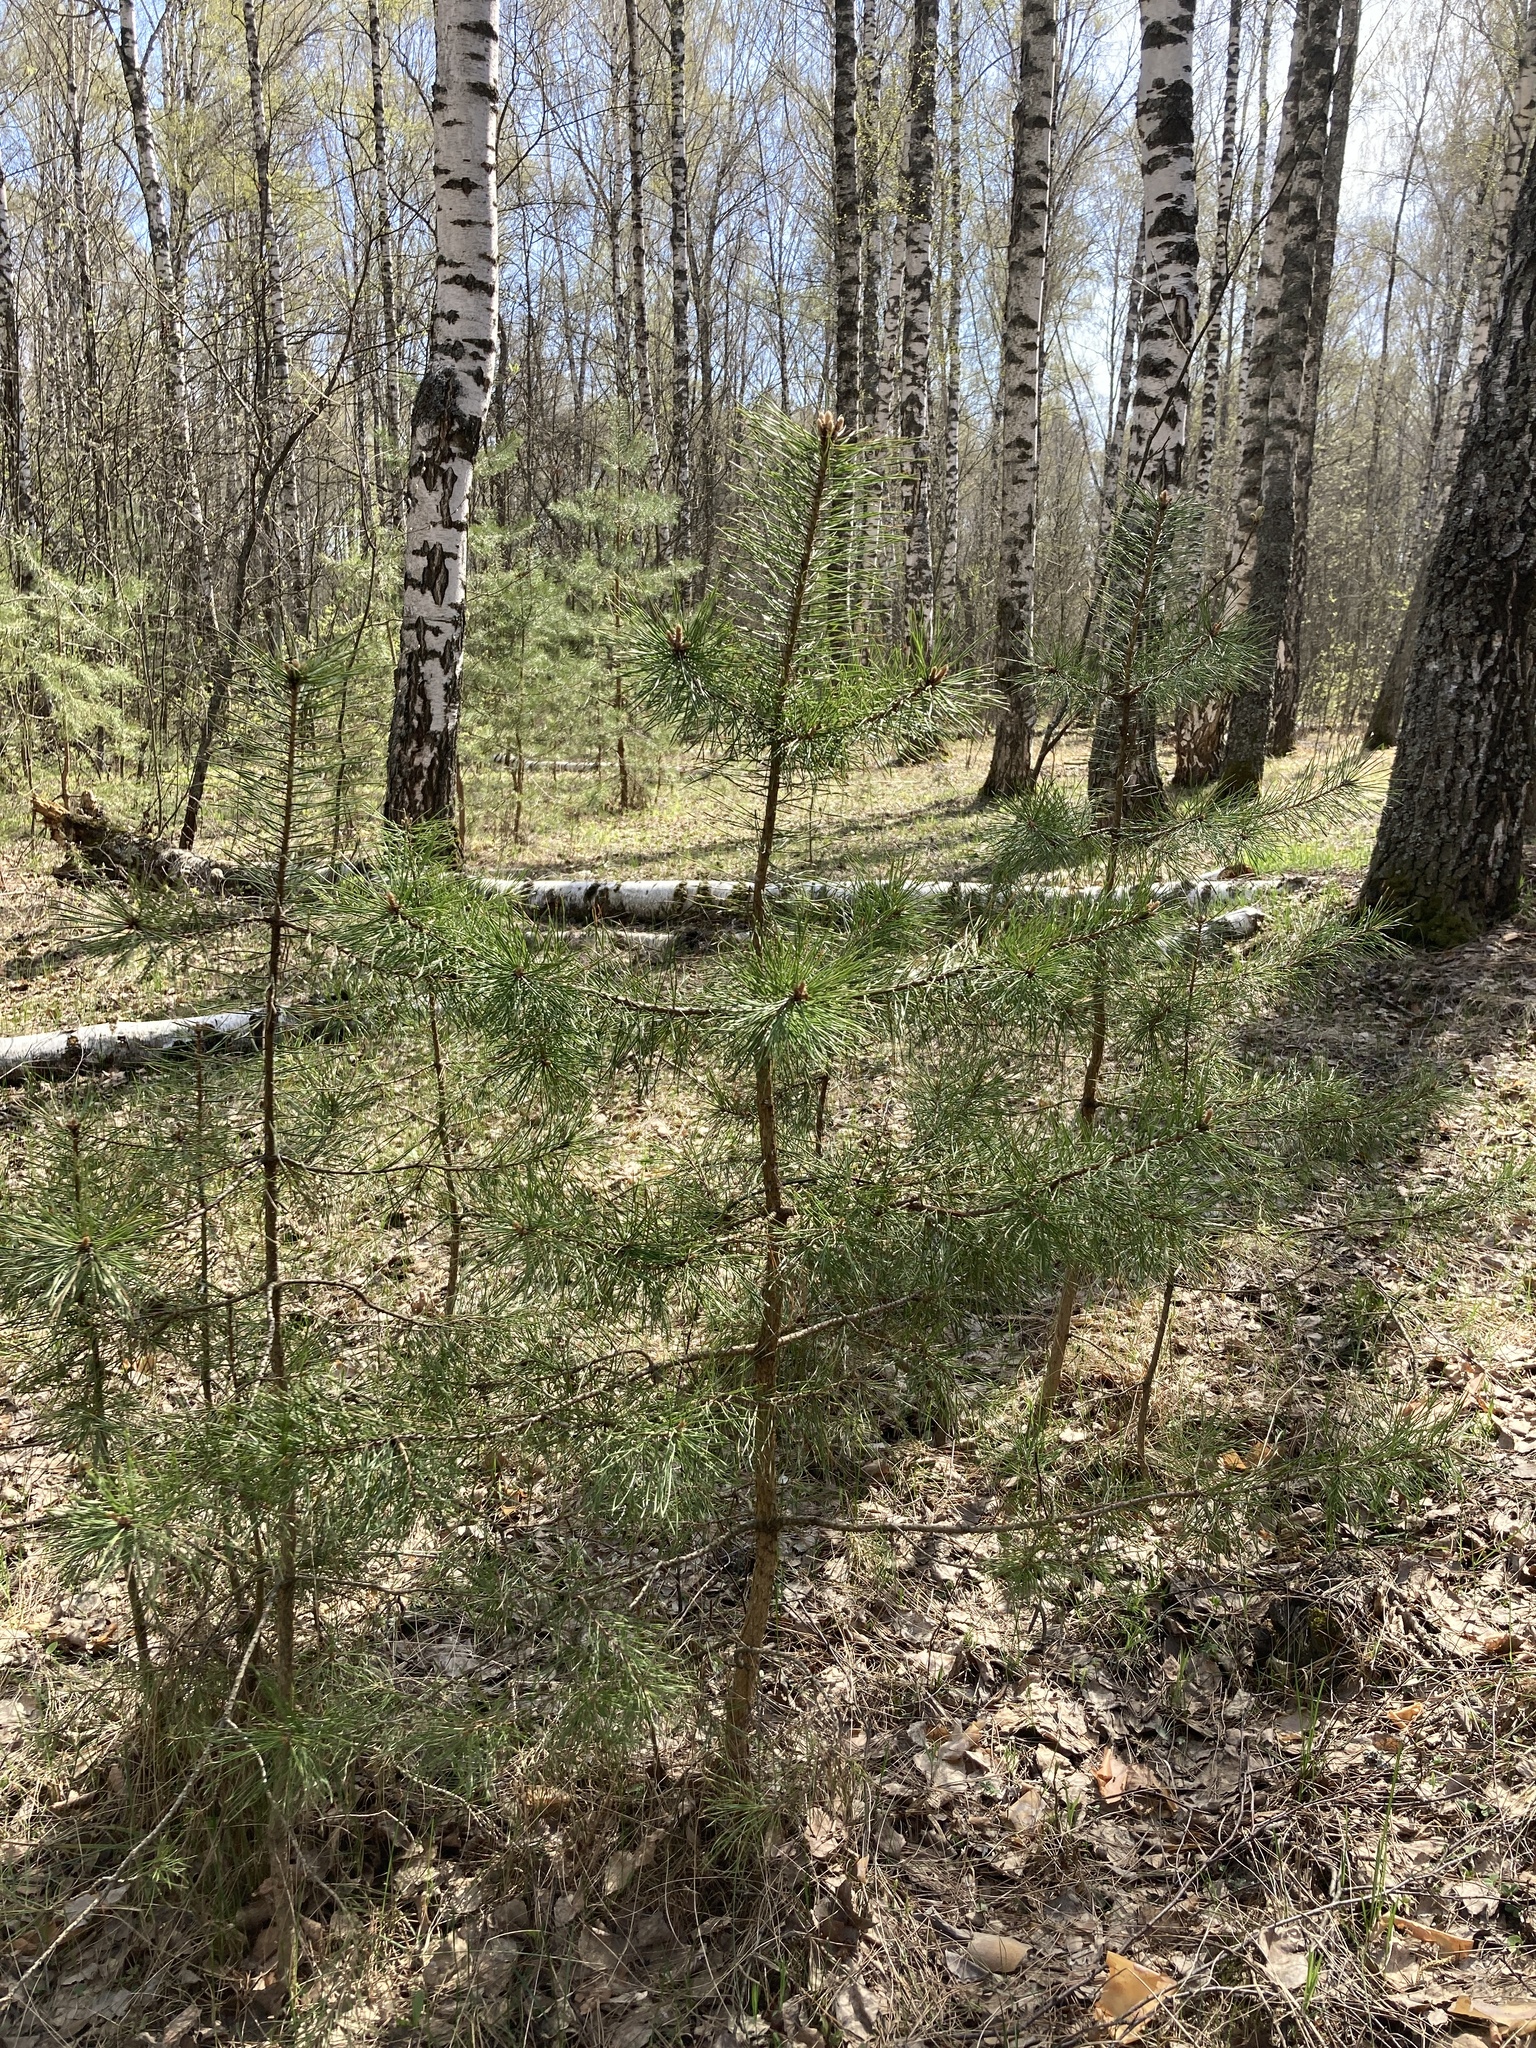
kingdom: Plantae
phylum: Tracheophyta
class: Pinopsida
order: Pinales
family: Pinaceae
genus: Pinus
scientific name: Pinus sylvestris
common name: Scots pine
